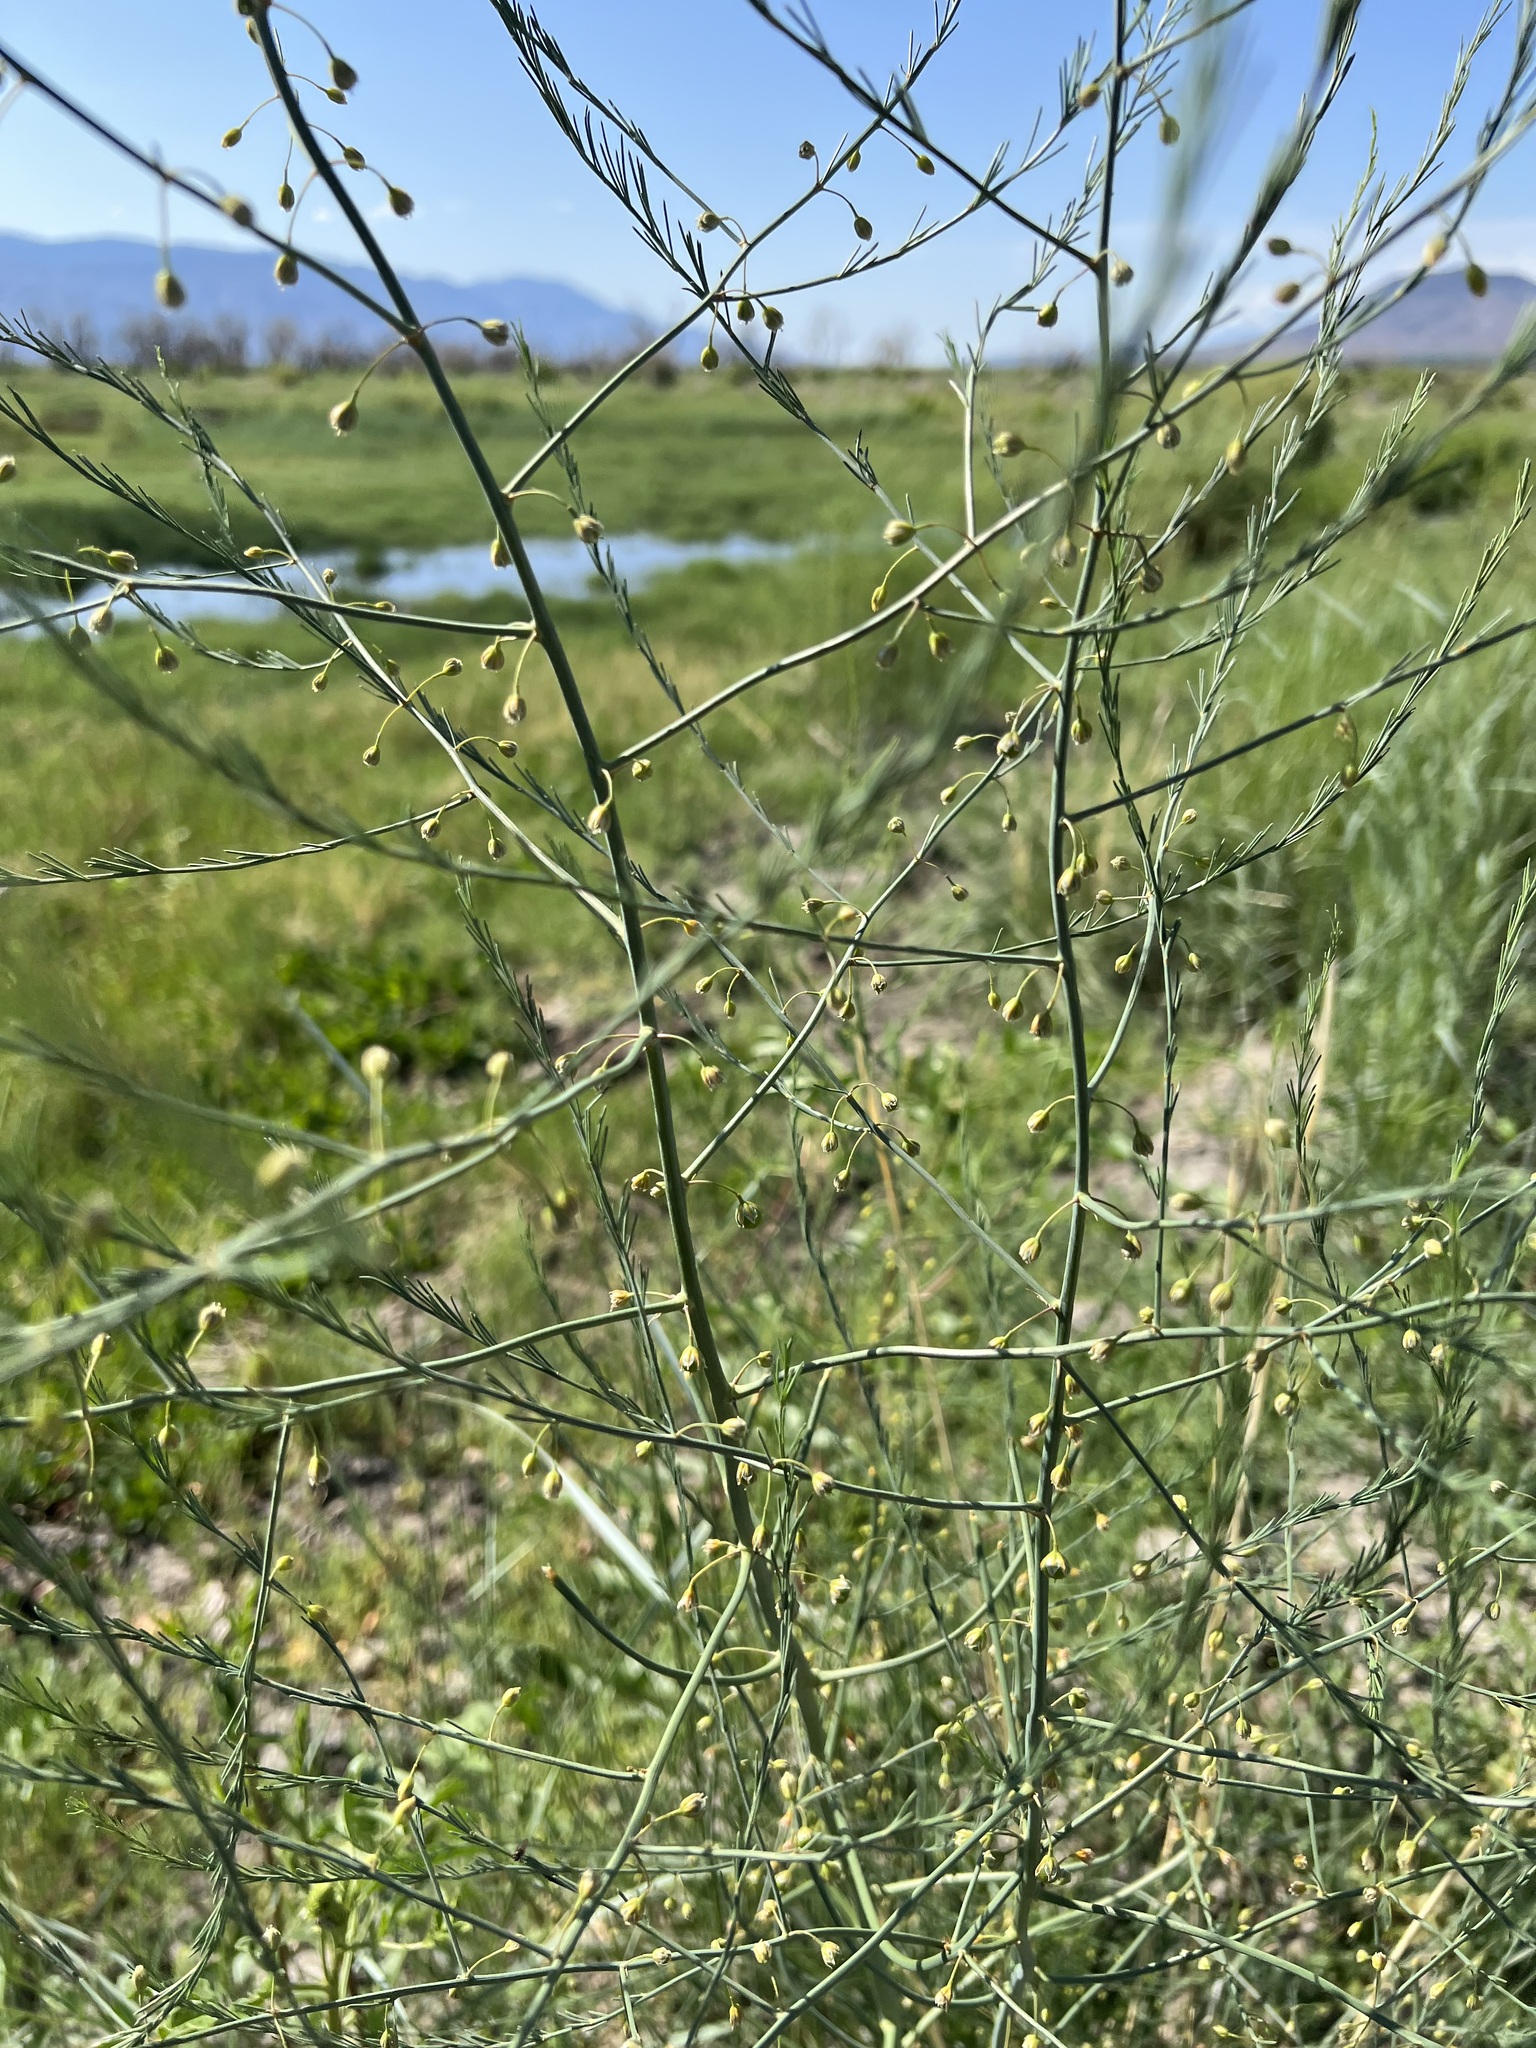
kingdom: Plantae
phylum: Tracheophyta
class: Liliopsida
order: Asparagales
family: Asparagaceae
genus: Asparagus
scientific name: Asparagus officinalis
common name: Garden asparagus
